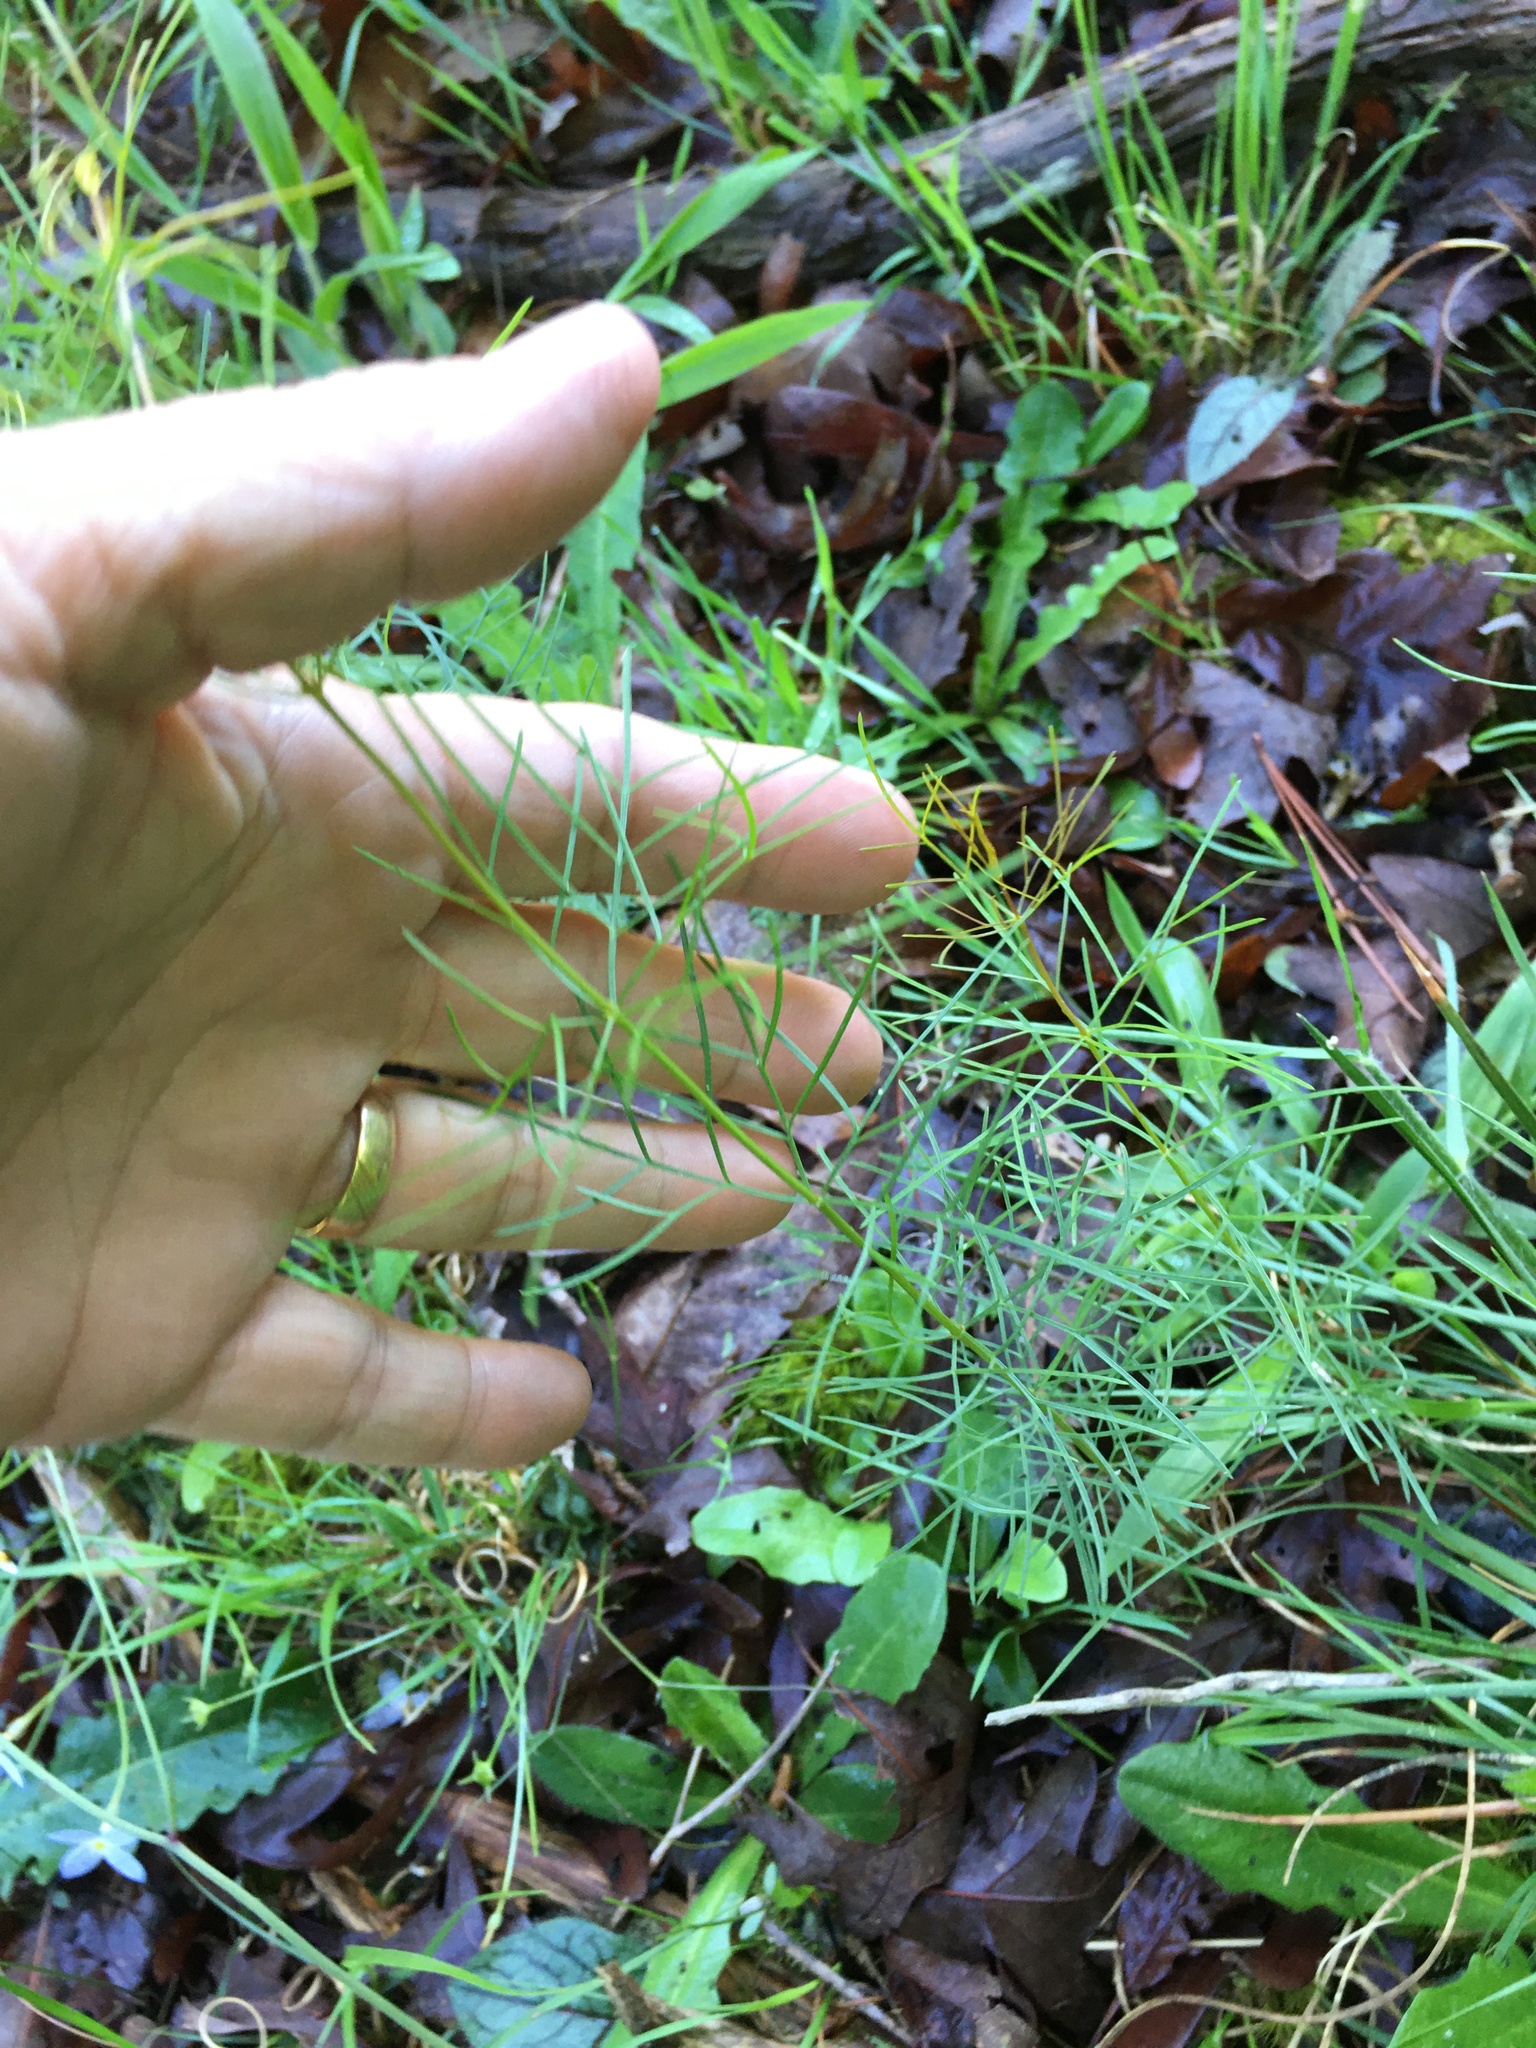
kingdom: Plantae
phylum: Tracheophyta
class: Magnoliopsida
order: Asterales
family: Asteraceae
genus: Coreopsis
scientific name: Coreopsis verticillata
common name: Whorled tickseed
